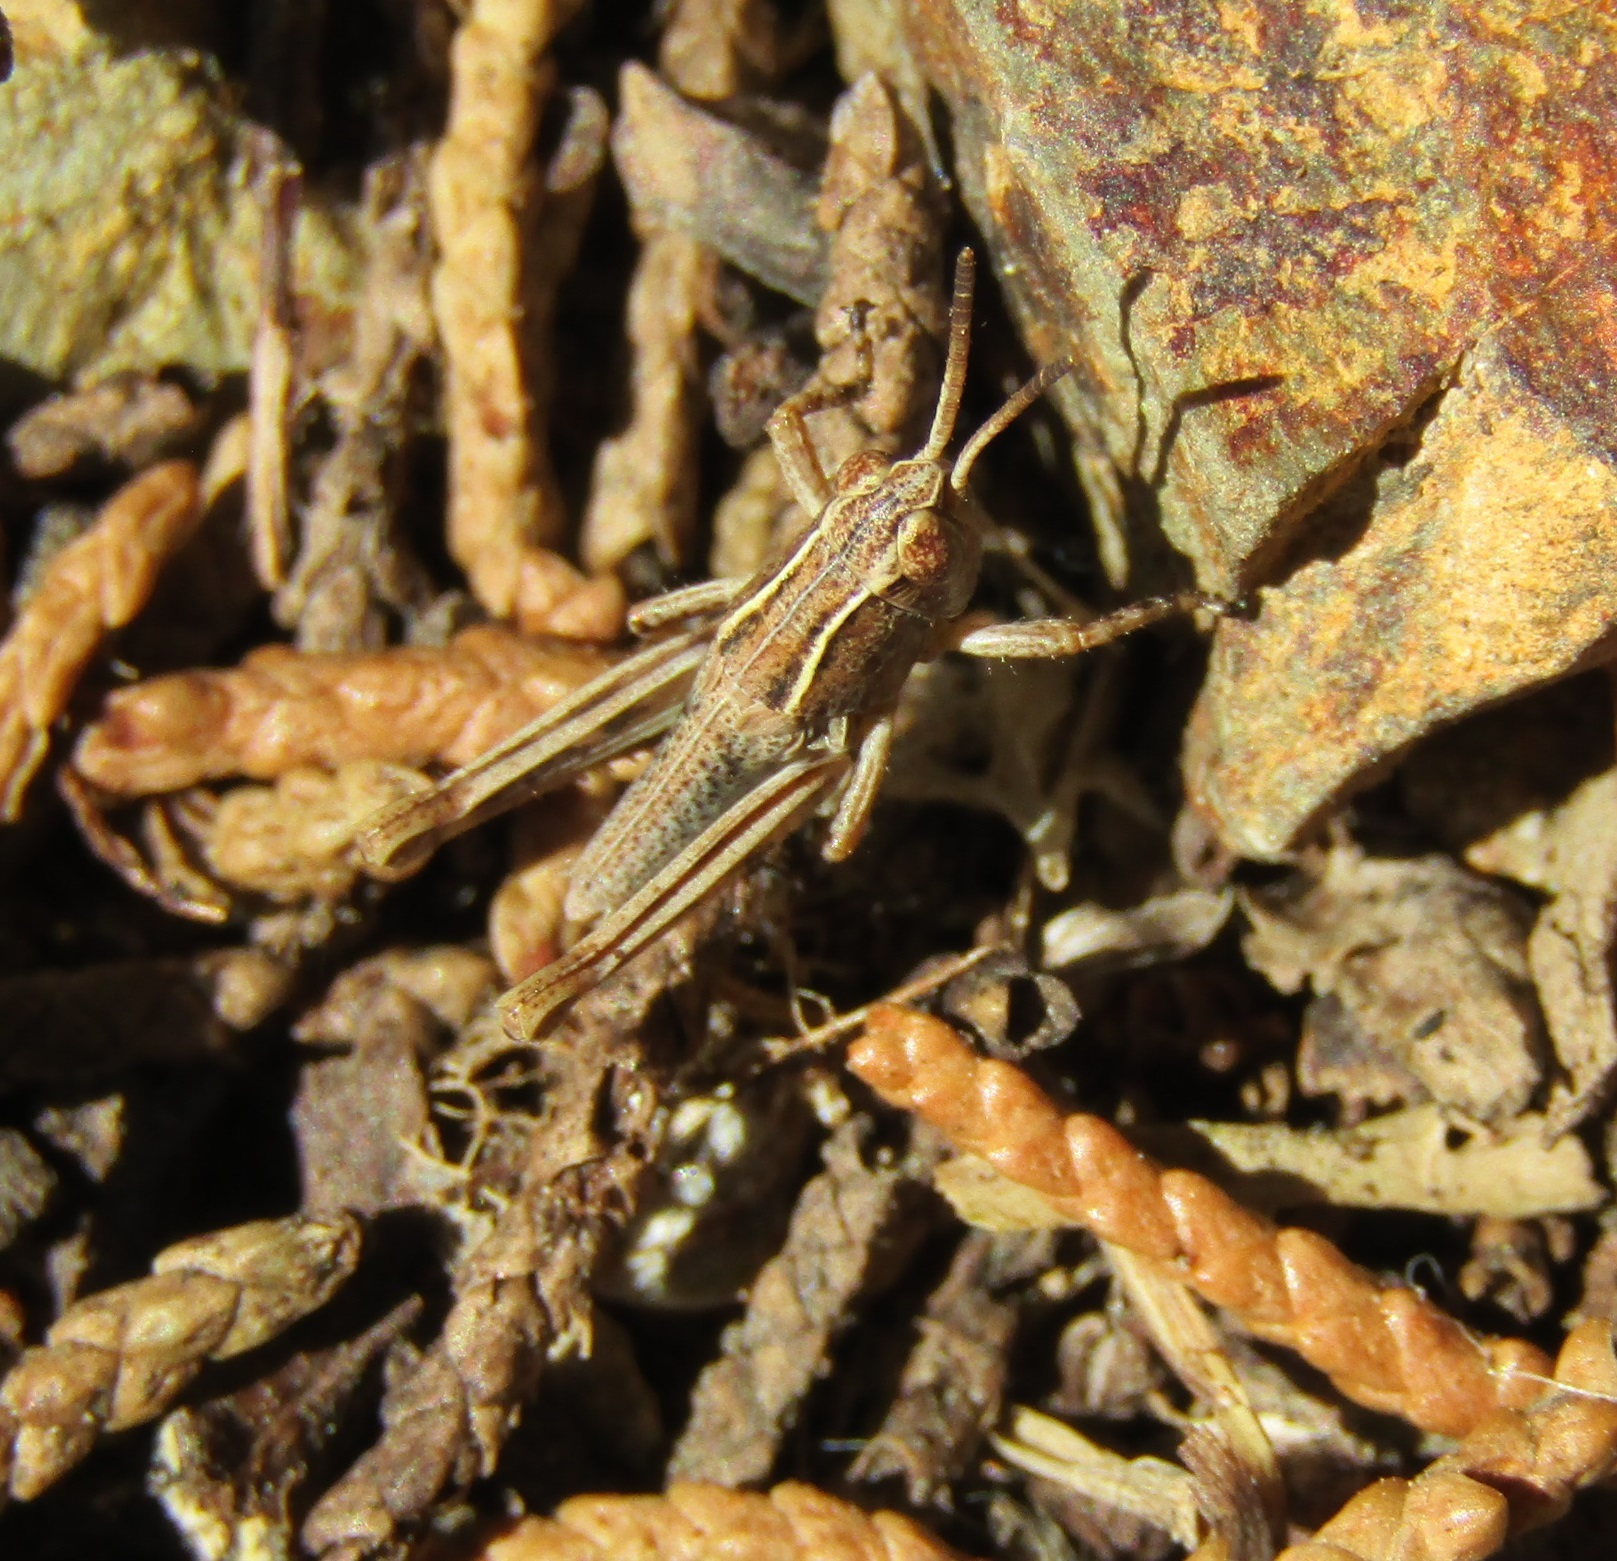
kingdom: Animalia
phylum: Arthropoda
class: Insecta
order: Orthoptera
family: Acrididae
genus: Phaulacridium
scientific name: Phaulacridium marginale
